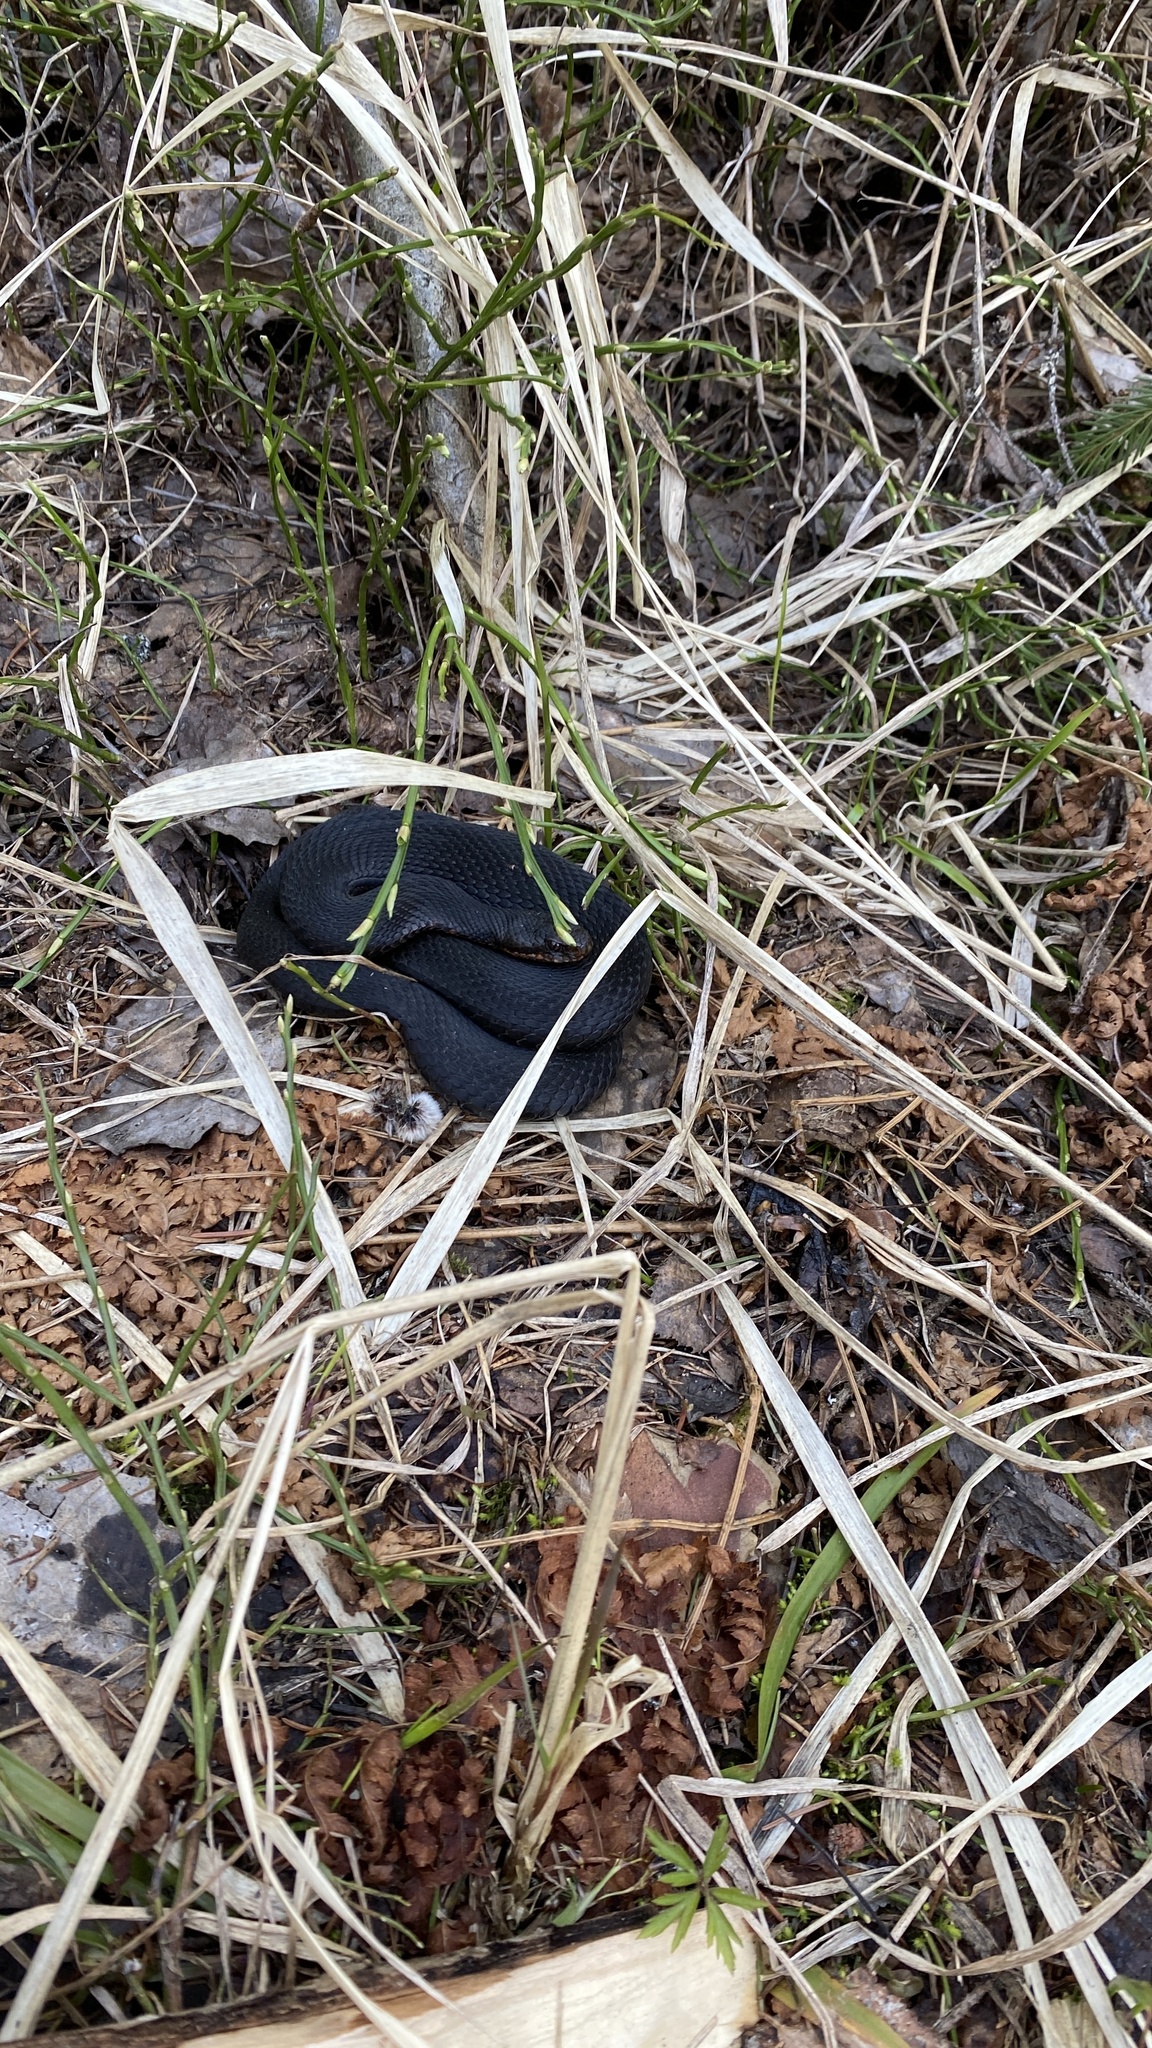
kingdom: Animalia
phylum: Chordata
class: Squamata
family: Viperidae
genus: Vipera
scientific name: Vipera berus
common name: Adder
